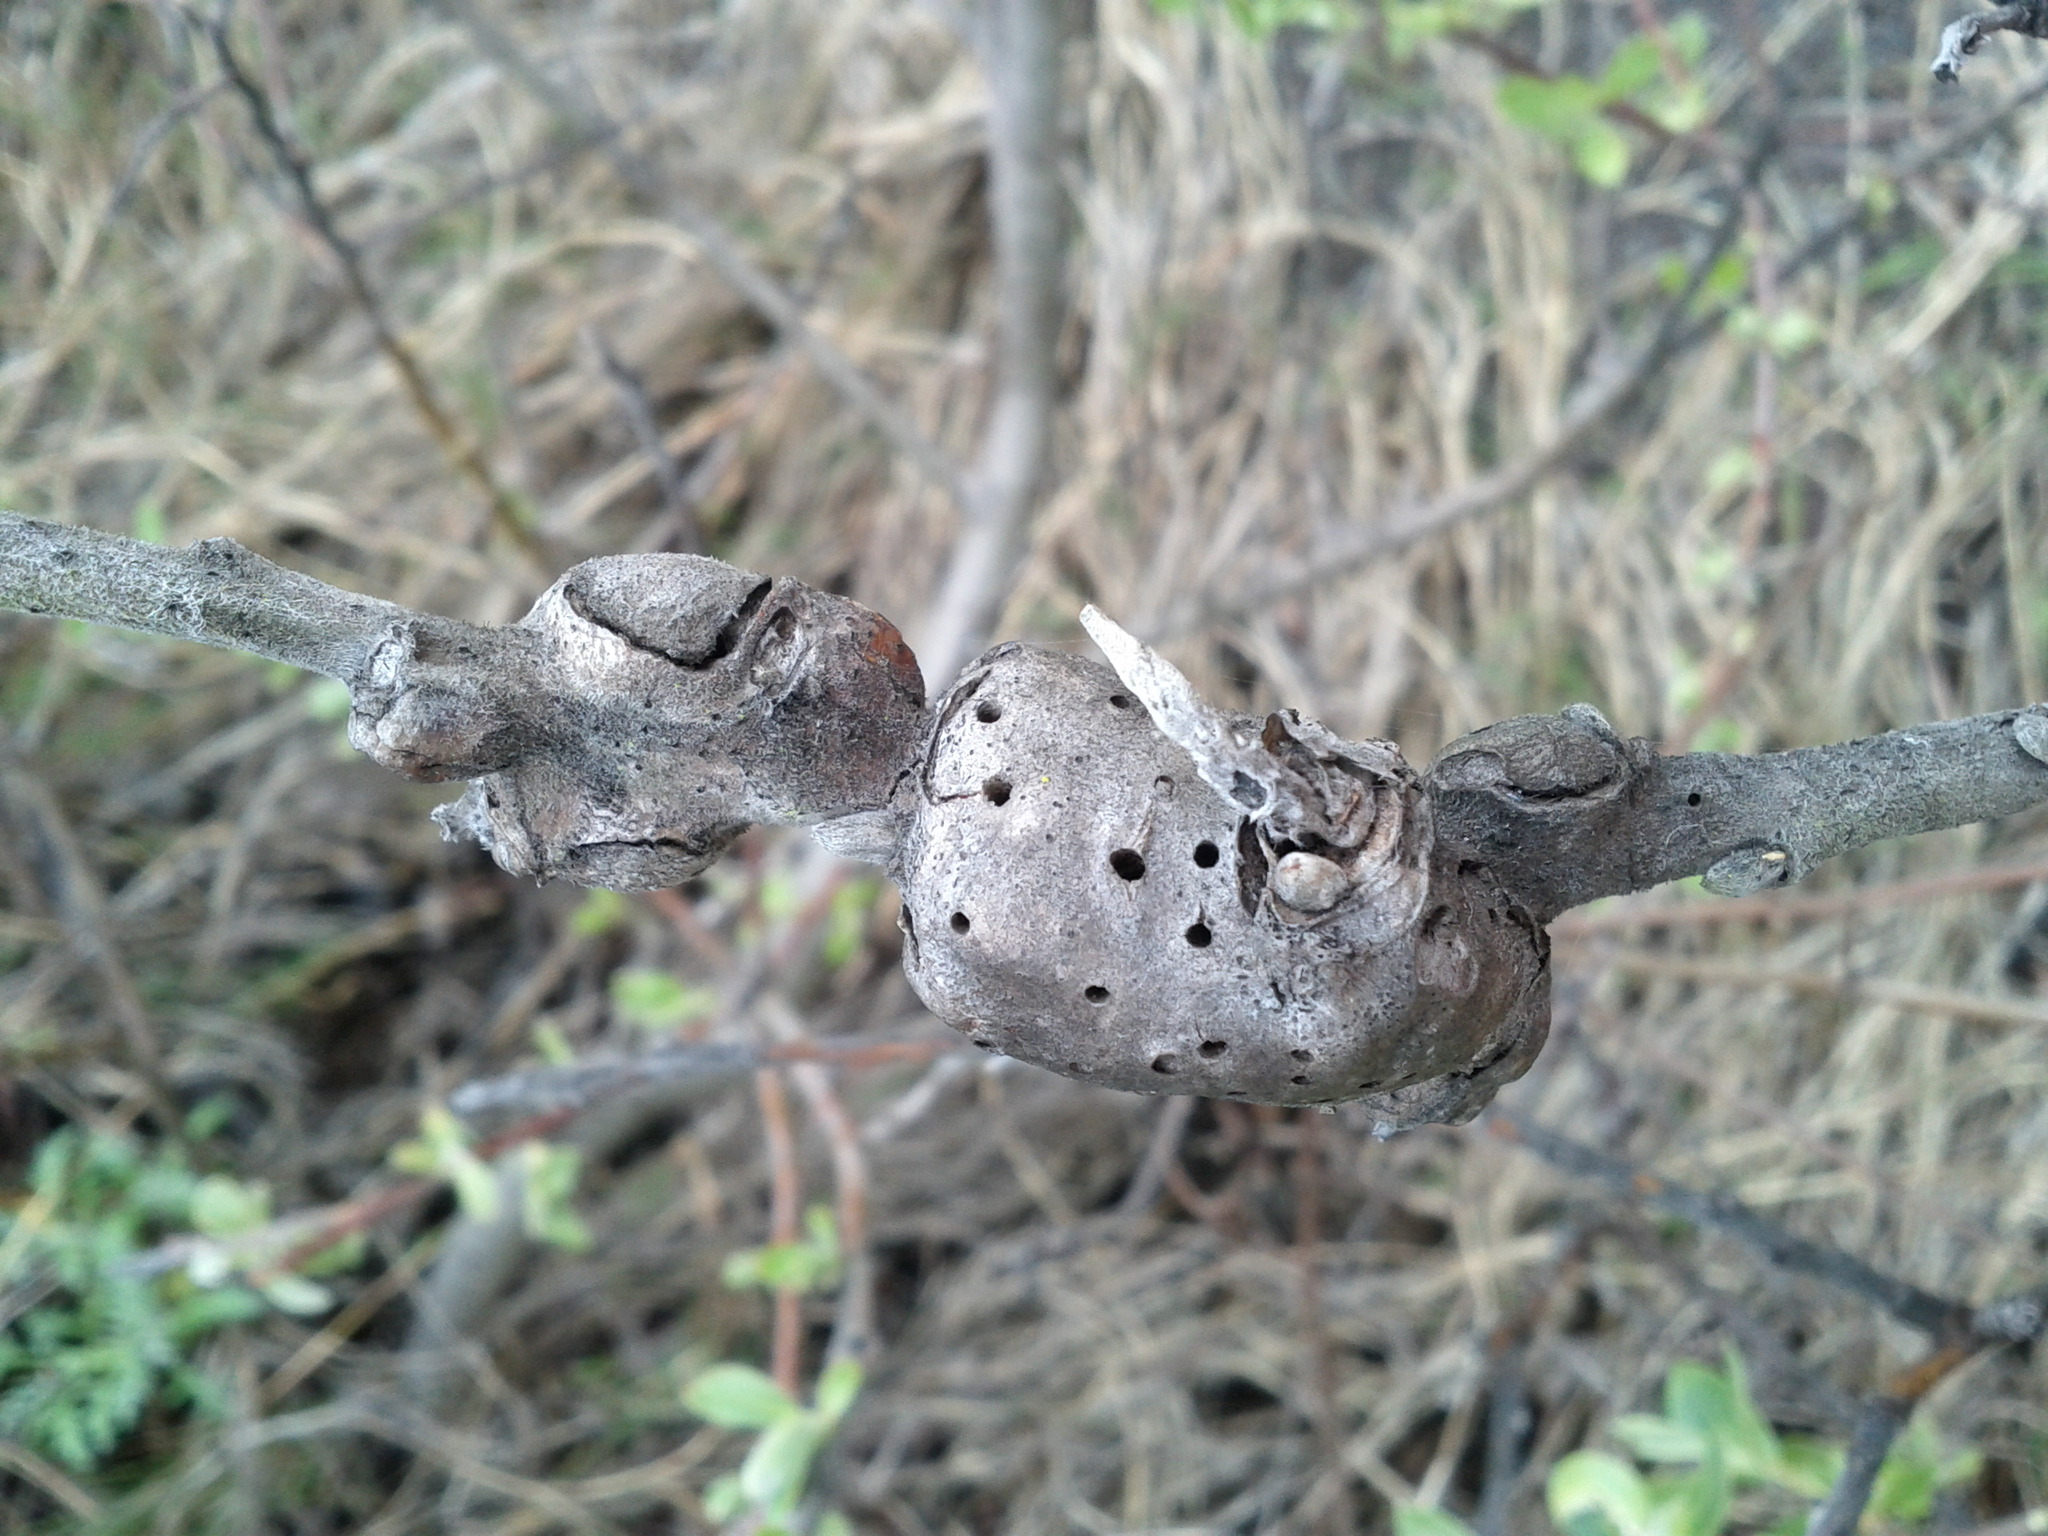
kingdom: Plantae
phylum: Tracheophyta
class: Magnoliopsida
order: Asterales
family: Asteraceae
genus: Baccharis
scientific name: Baccharis pilularis
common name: Coyotebrush
